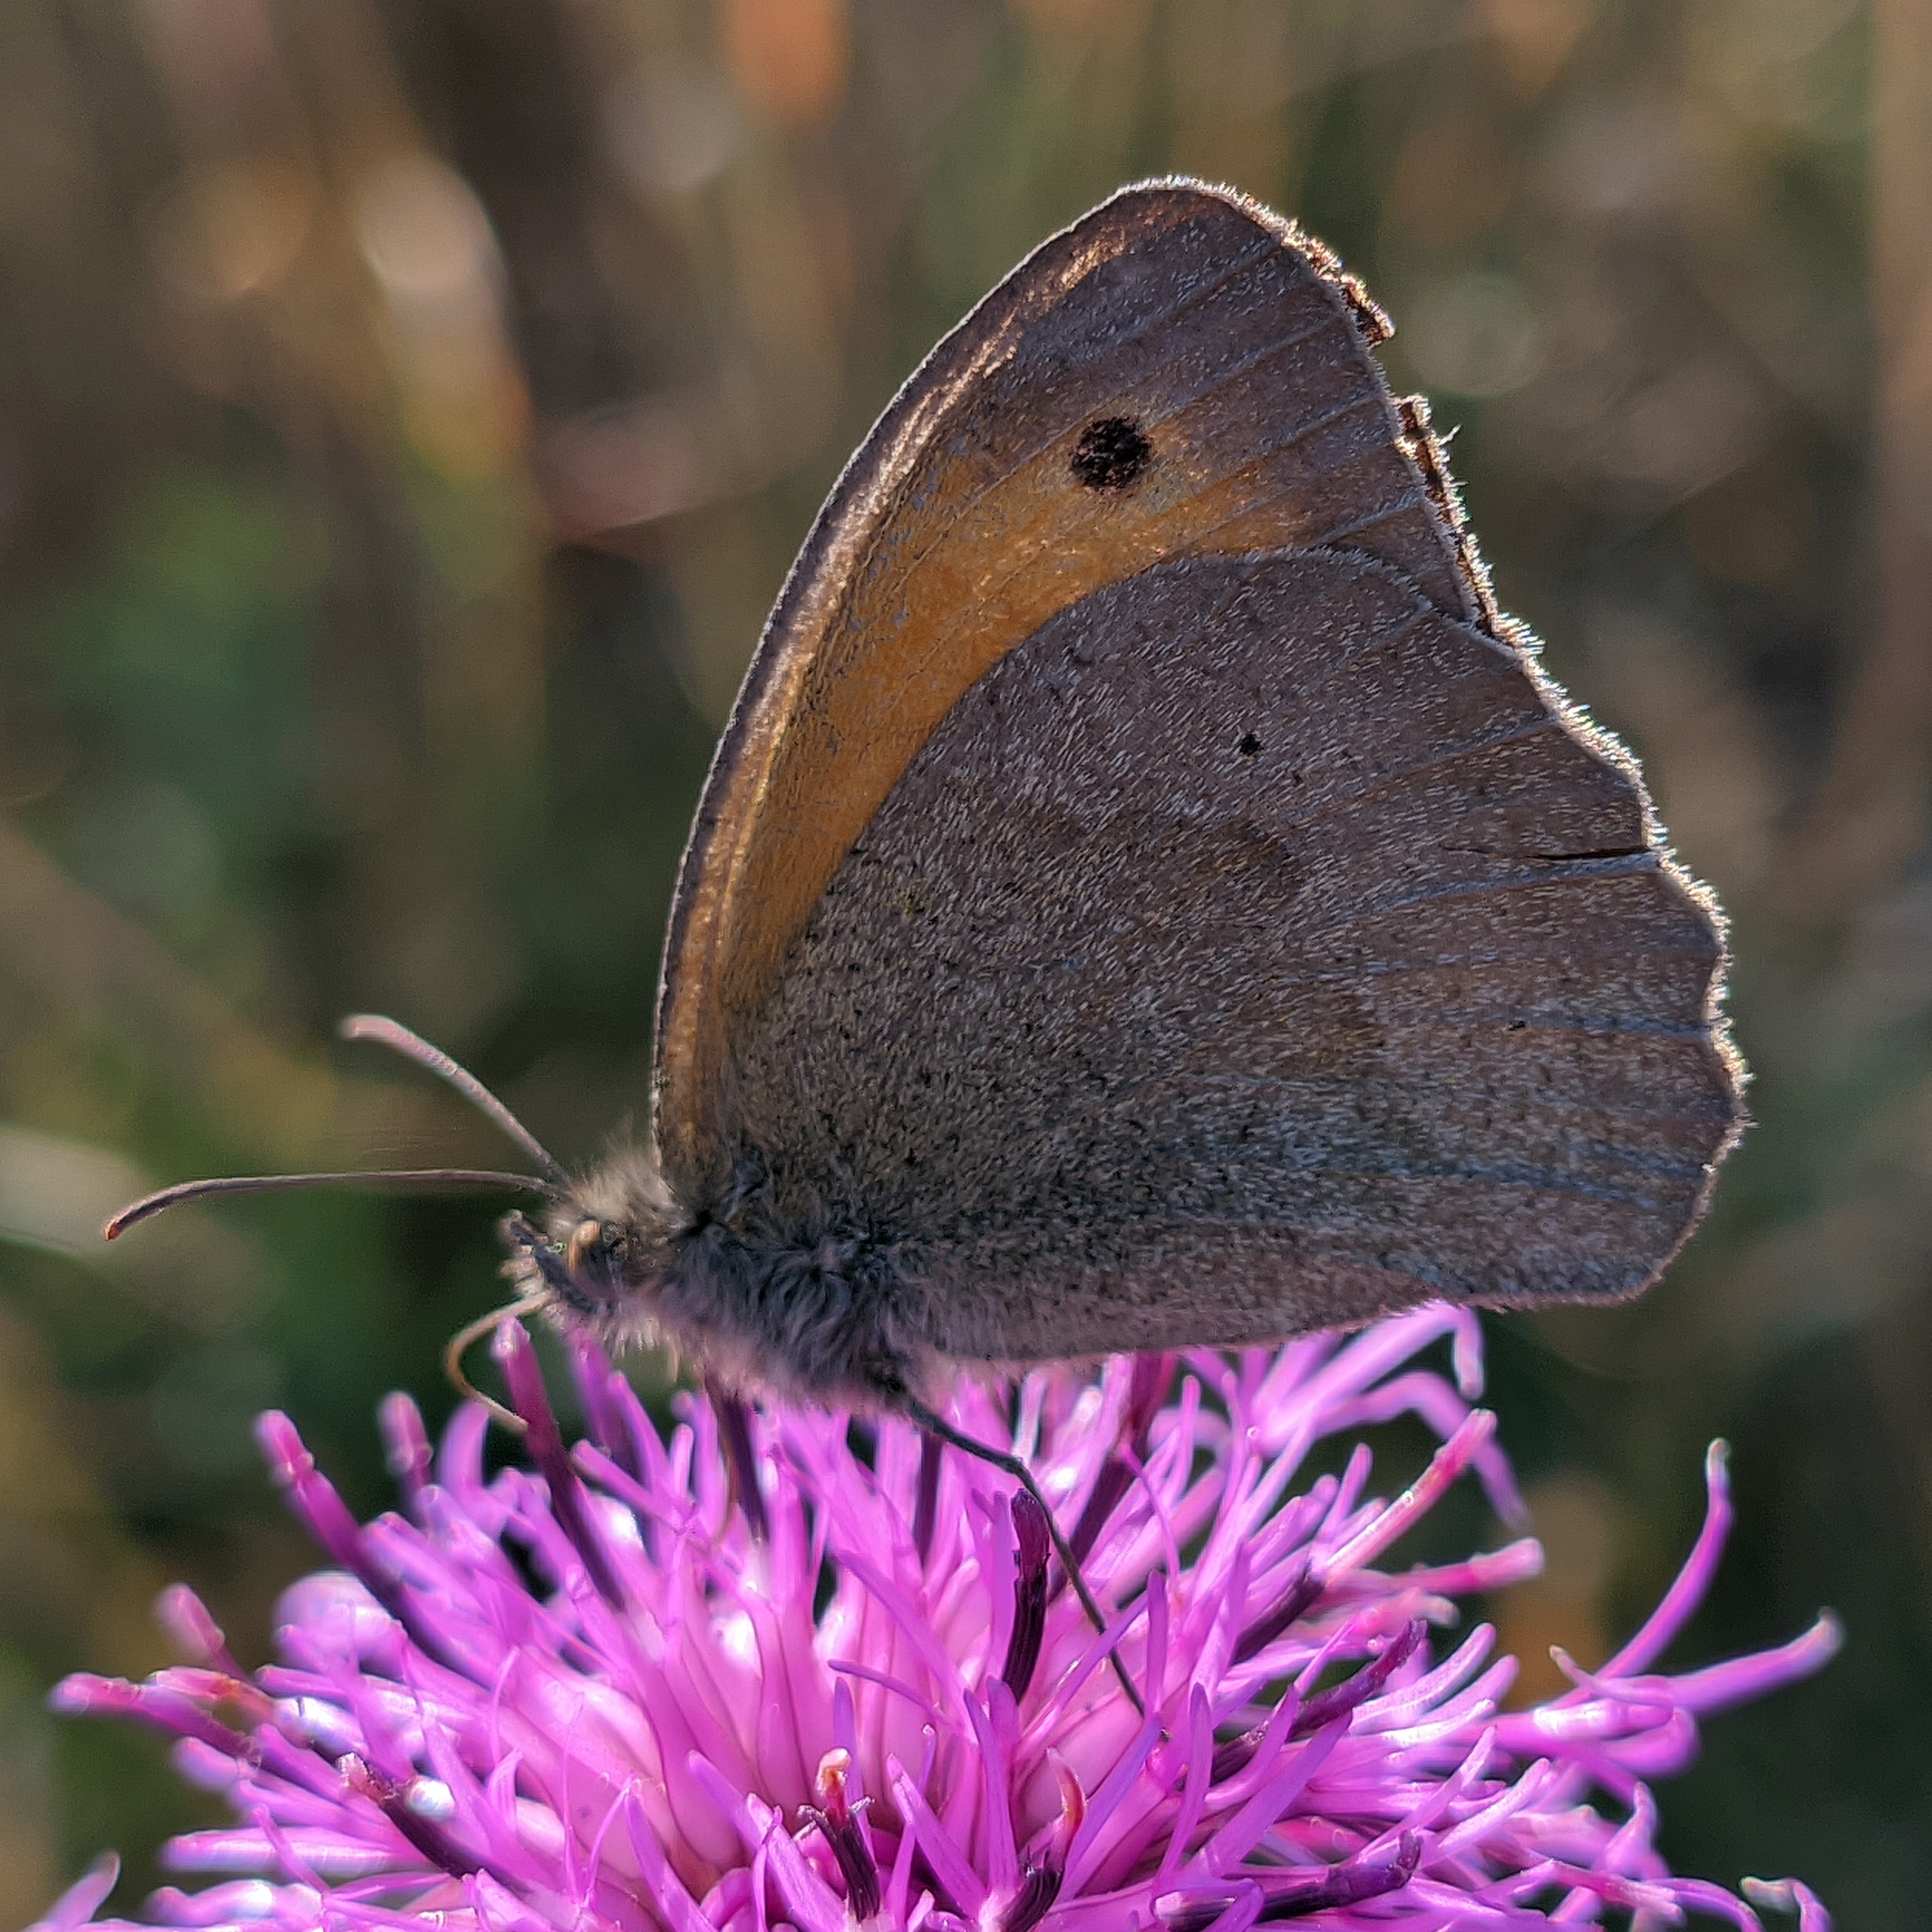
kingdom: Animalia
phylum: Arthropoda
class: Insecta
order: Lepidoptera
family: Nymphalidae
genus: Maniola
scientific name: Maniola jurtina
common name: Meadow brown
